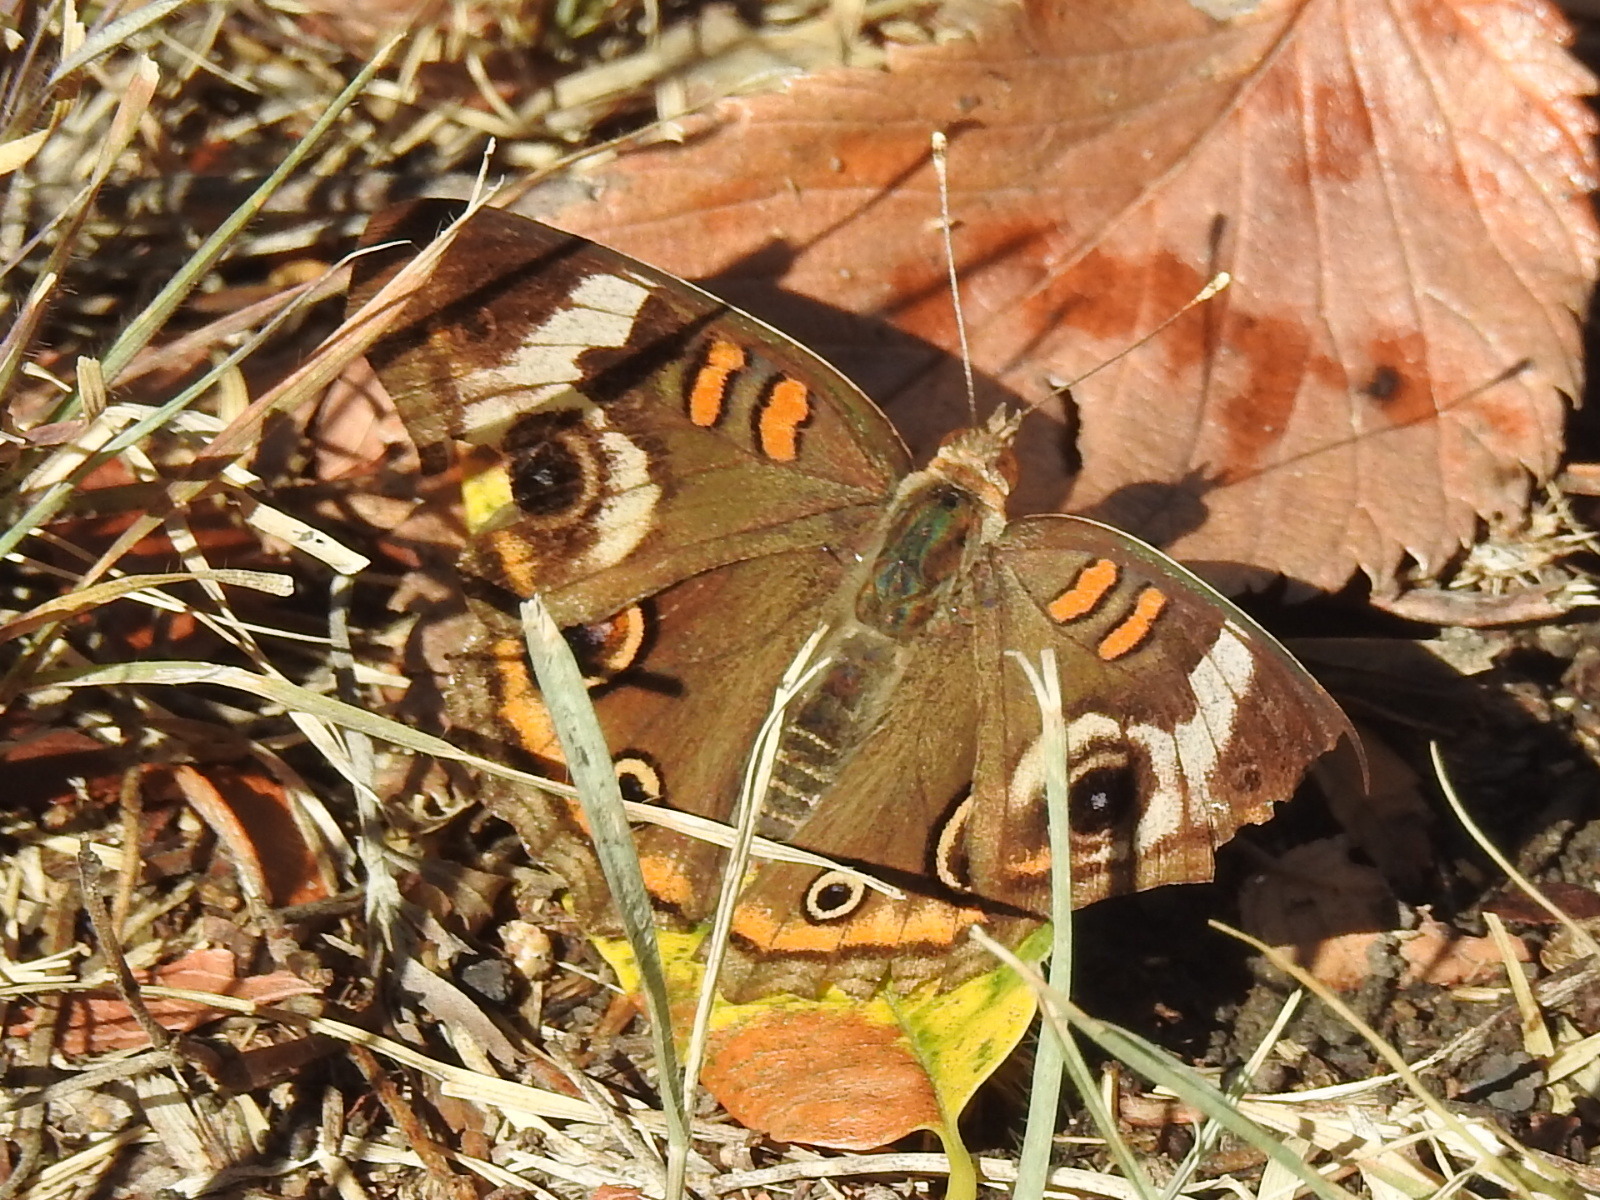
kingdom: Animalia
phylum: Arthropoda
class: Insecta
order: Lepidoptera
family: Nymphalidae
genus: Junonia
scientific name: Junonia coenia
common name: Common buckeye
